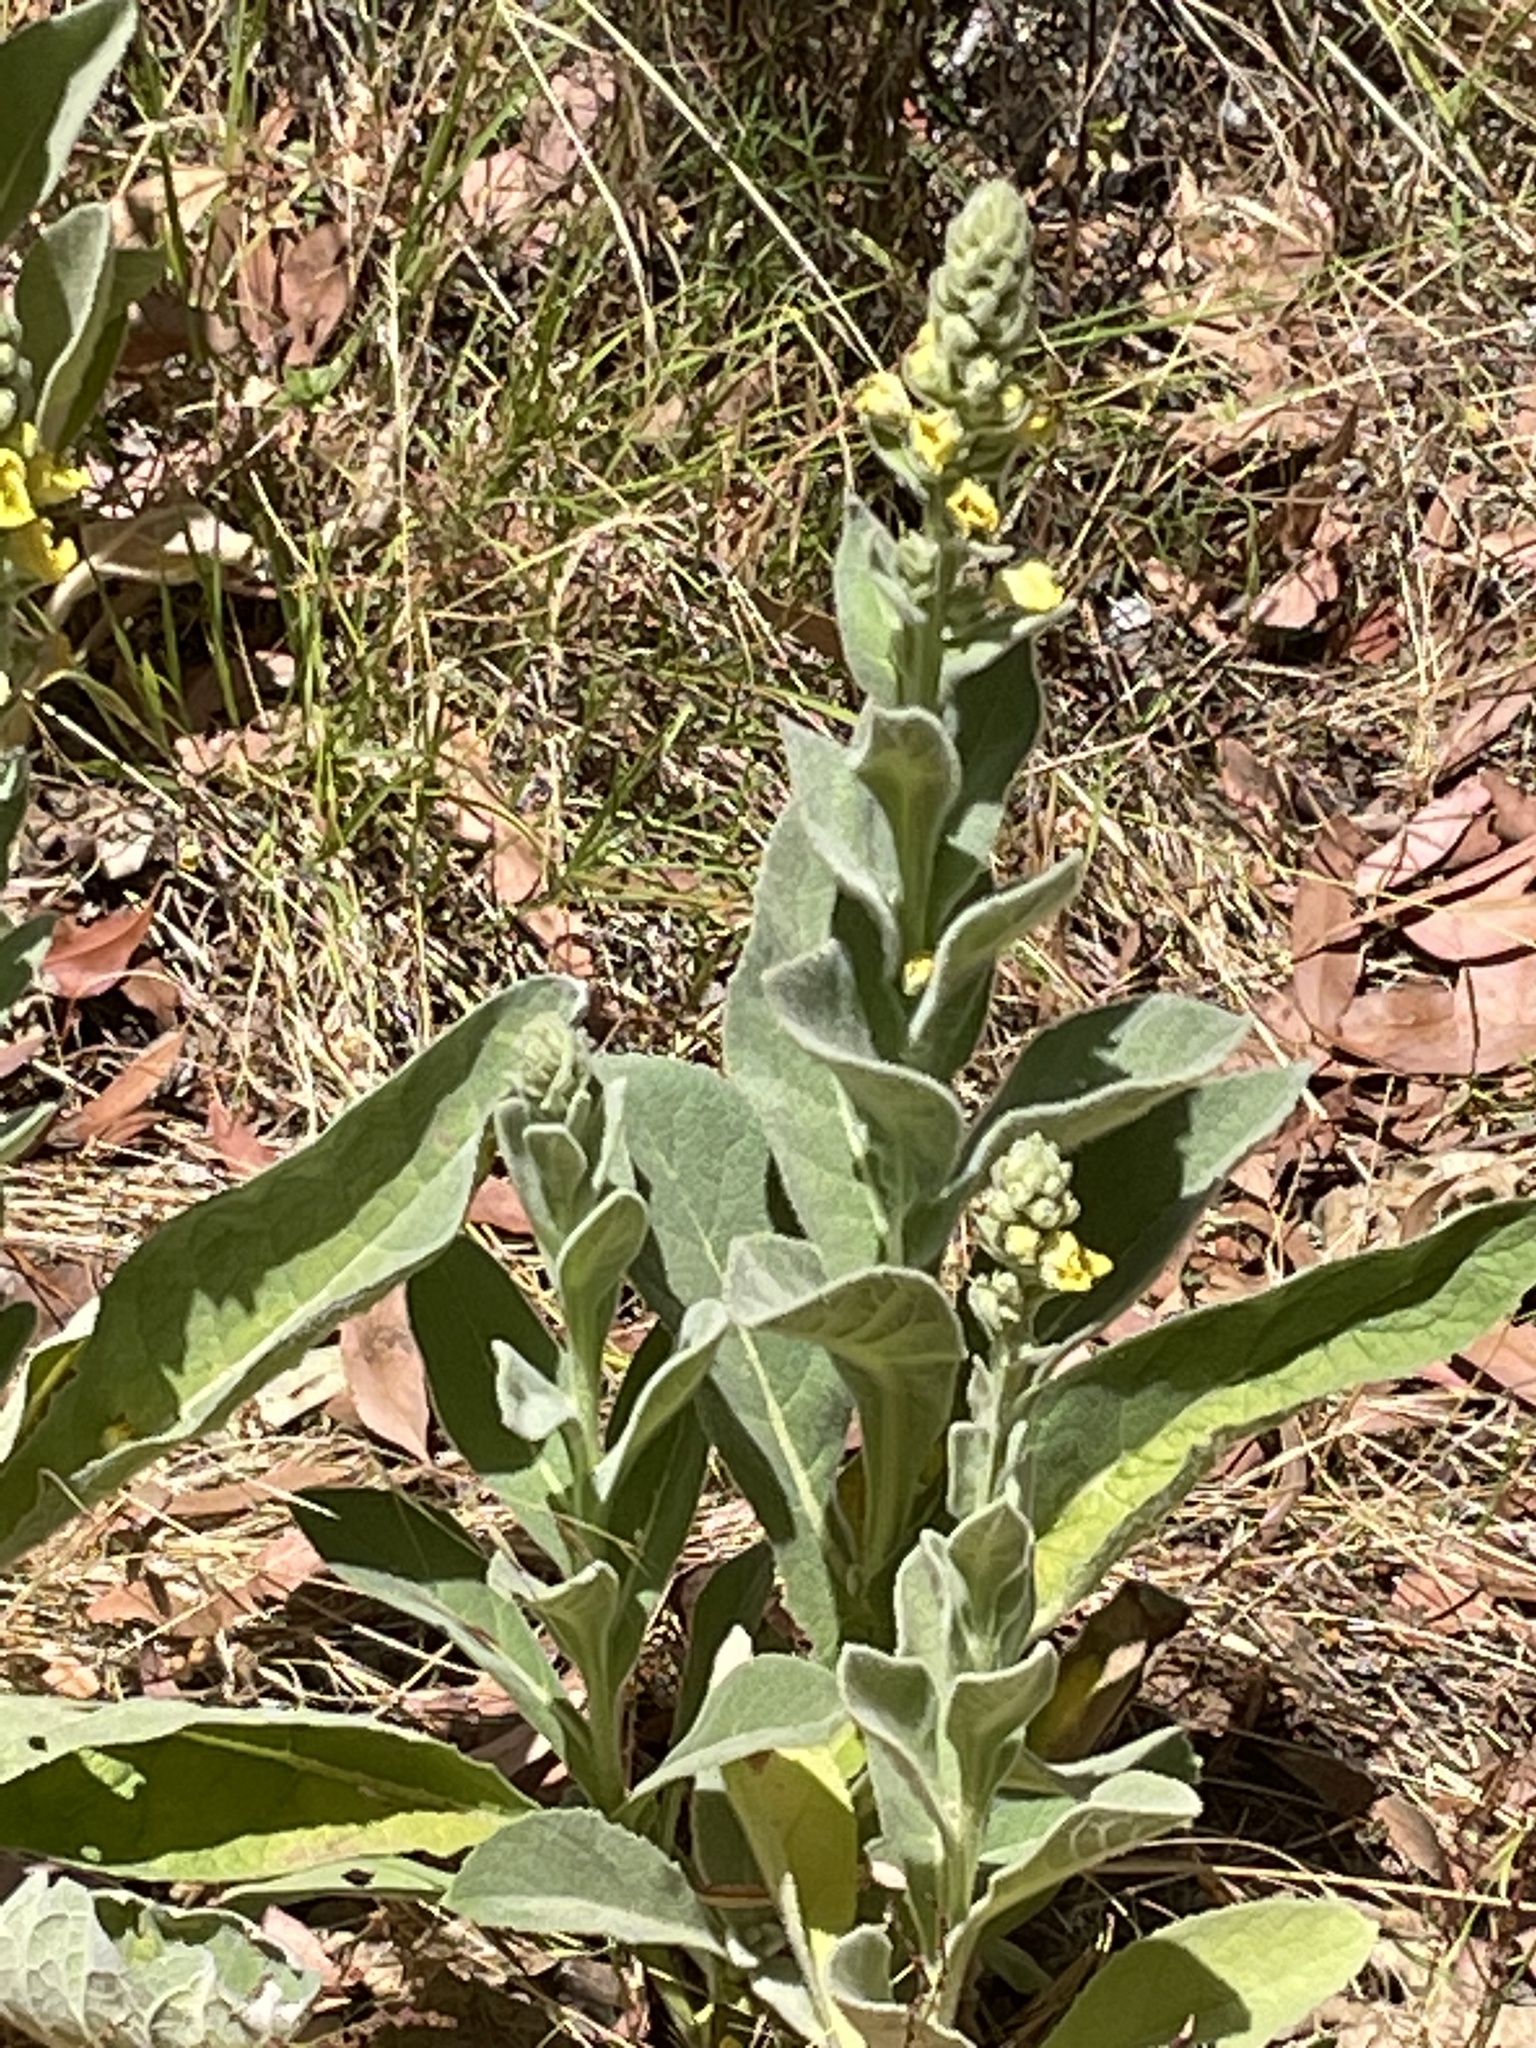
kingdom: Plantae
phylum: Tracheophyta
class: Magnoliopsida
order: Lamiales
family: Scrophulariaceae
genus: Verbascum
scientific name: Verbascum thapsus
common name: Common mullein
